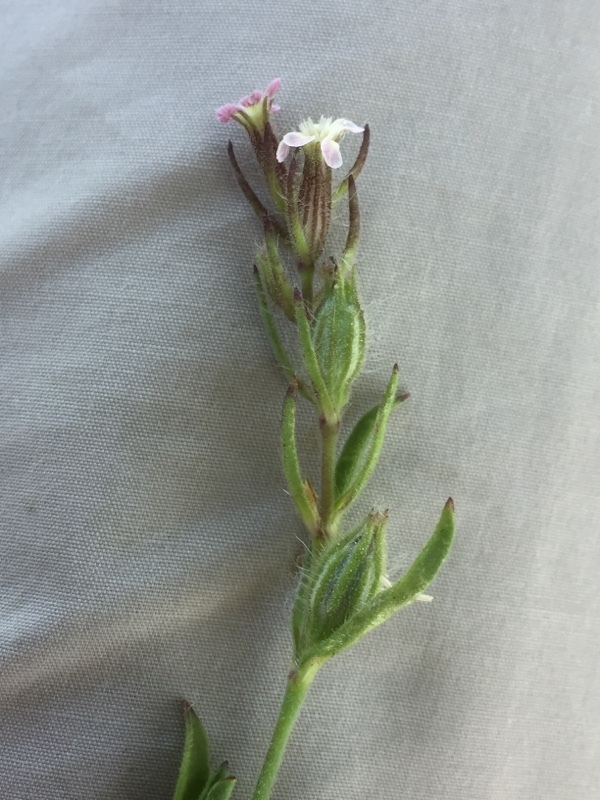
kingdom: Plantae
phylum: Tracheophyta
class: Magnoliopsida
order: Caryophyllales
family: Caryophyllaceae
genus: Silene
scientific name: Silene gallica
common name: Small-flowered catchfly
